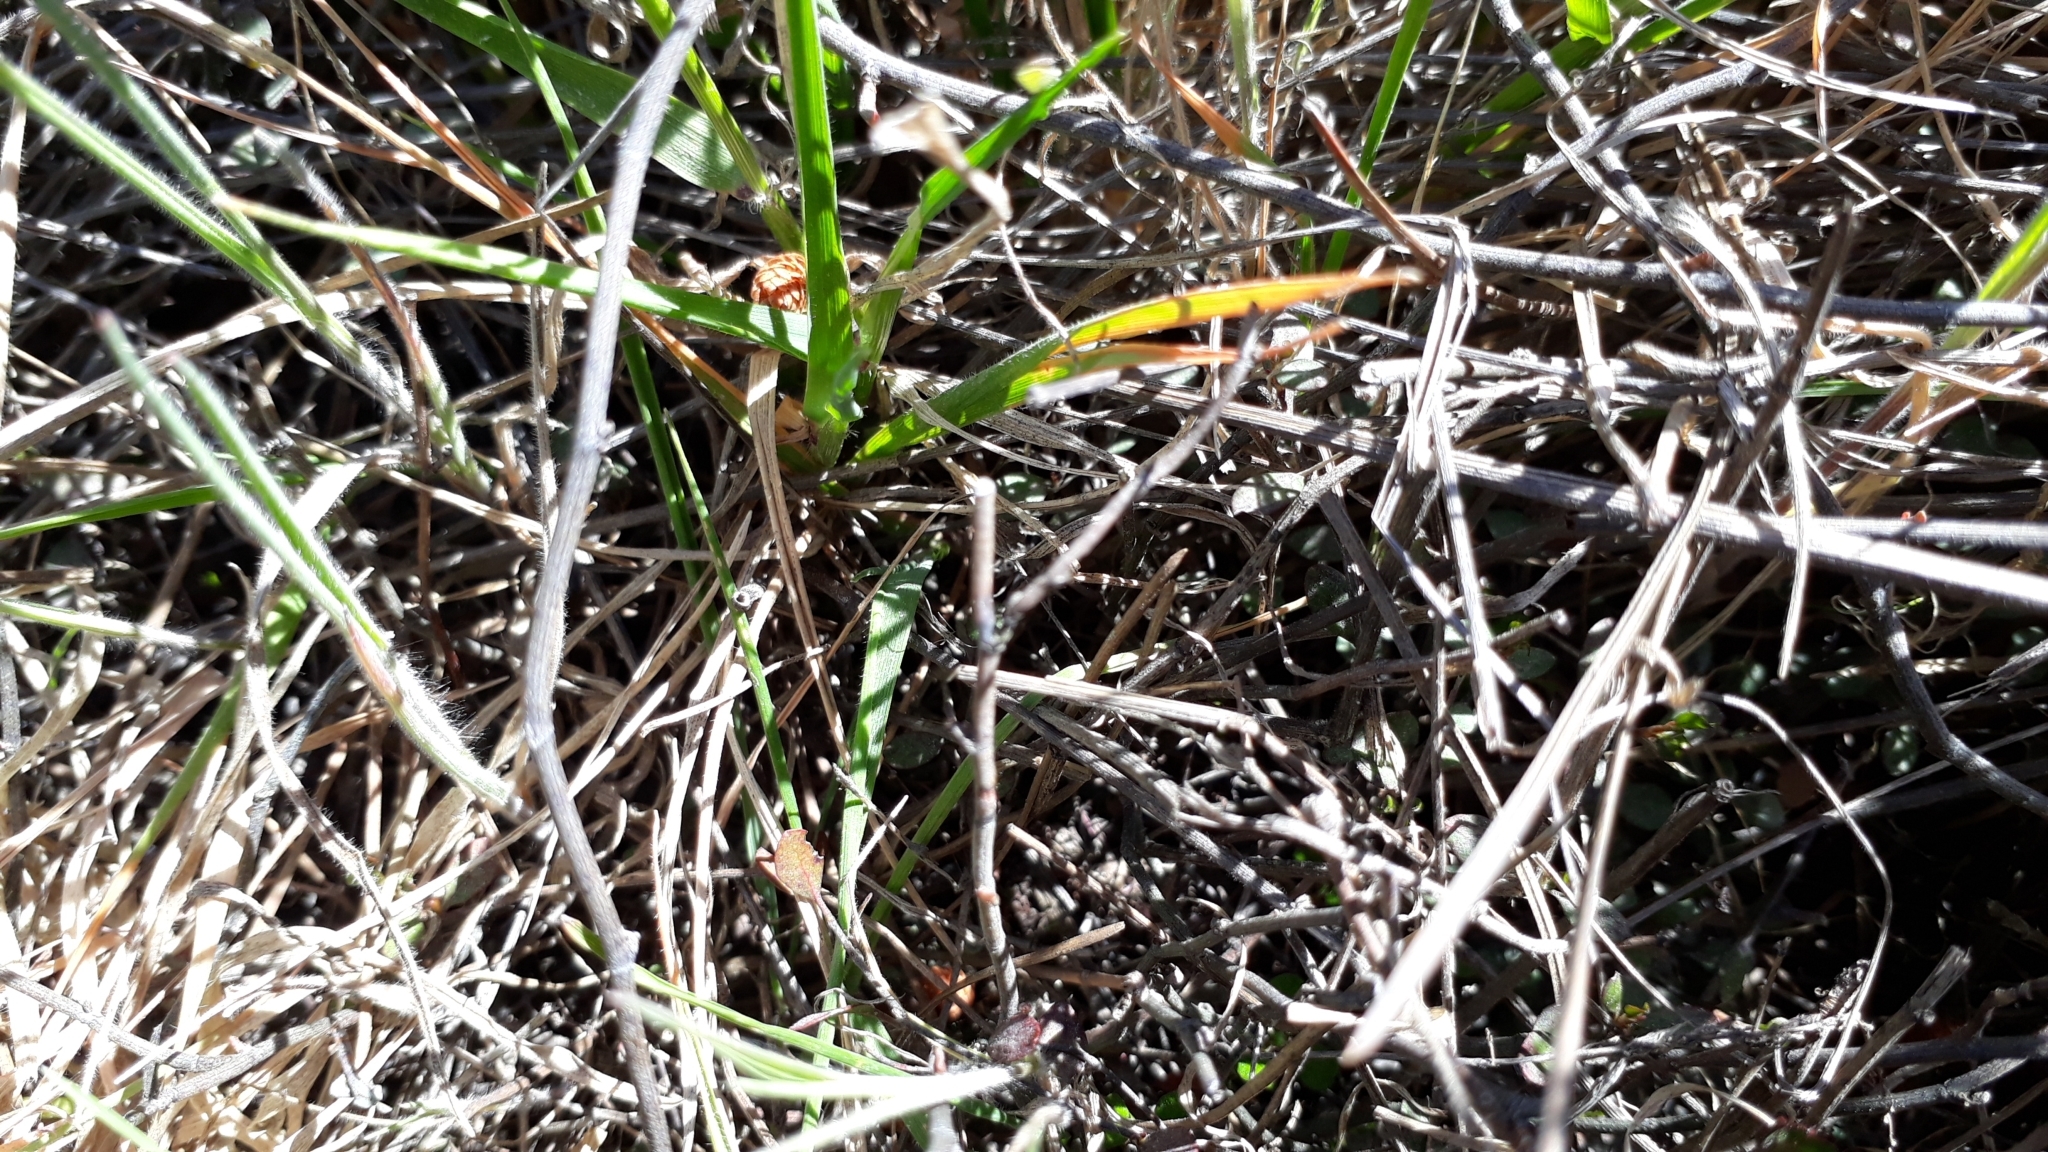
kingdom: Plantae
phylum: Tracheophyta
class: Magnoliopsida
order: Caryophyllales
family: Polygonaceae
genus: Muehlenbeckia
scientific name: Muehlenbeckia ephedroides
